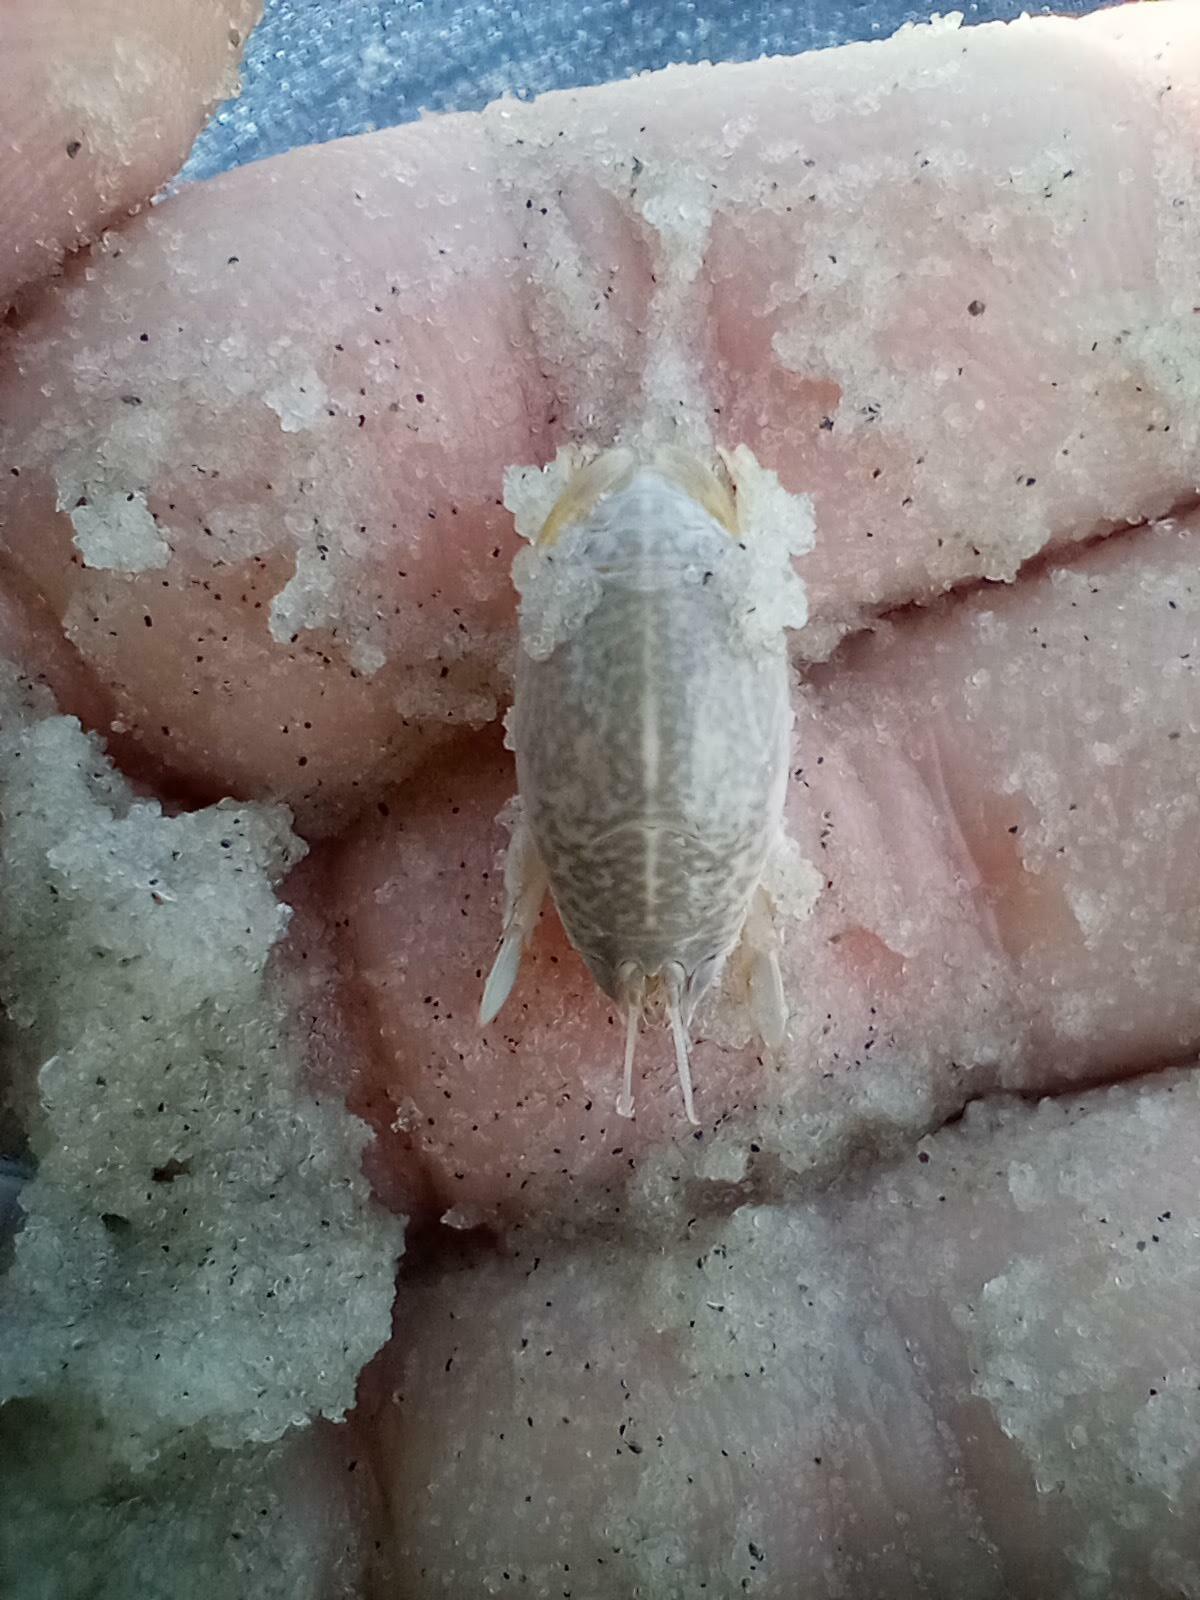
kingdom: Animalia
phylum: Arthropoda
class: Malacostraca
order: Decapoda
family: Hippidae
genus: Emerita
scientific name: Emerita talpoida
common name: Atlantic sand crab
